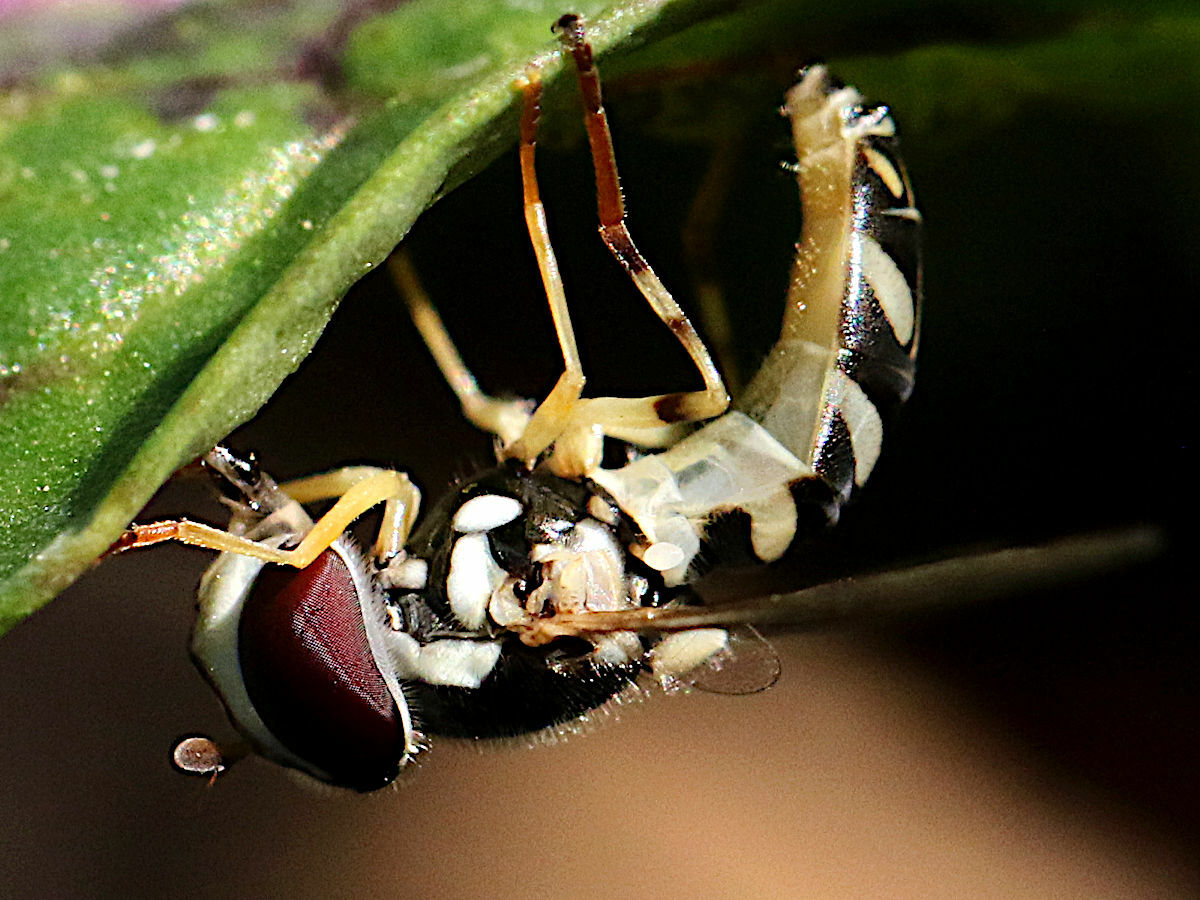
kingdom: Animalia
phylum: Arthropoda
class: Insecta
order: Diptera
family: Syrphidae
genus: Allograpta
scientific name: Allograpta exotica
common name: Syrphid fly
